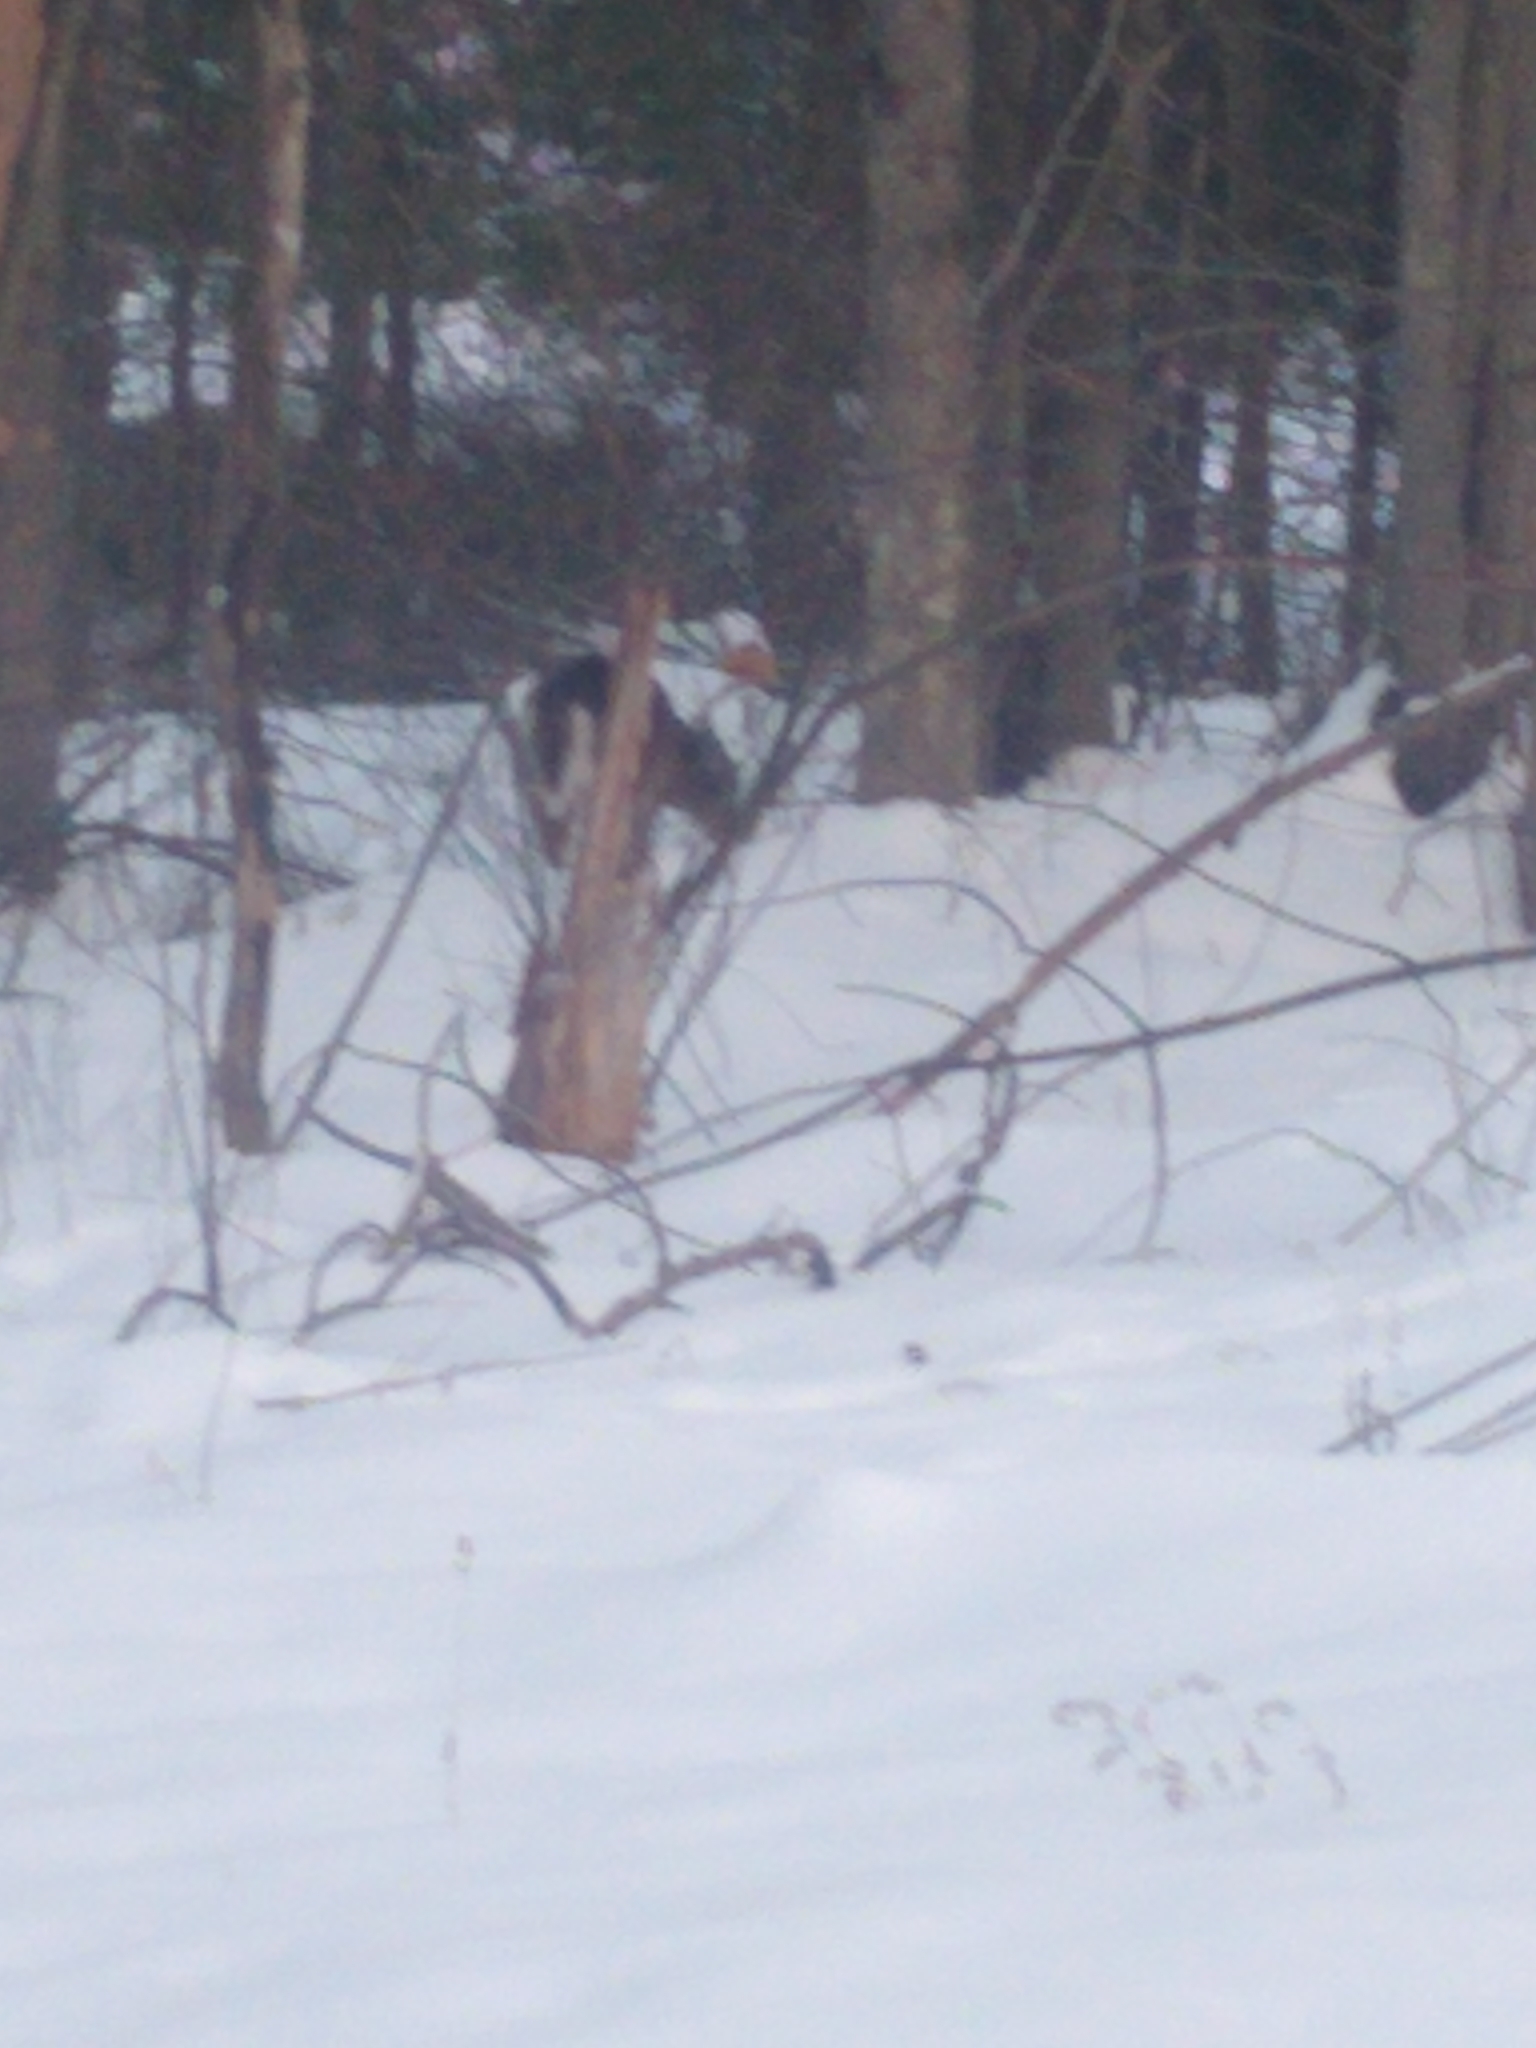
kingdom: Animalia
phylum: Chordata
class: Mammalia
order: Artiodactyla
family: Cervidae
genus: Odocoileus
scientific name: Odocoileus virginianus
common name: White-tailed deer
